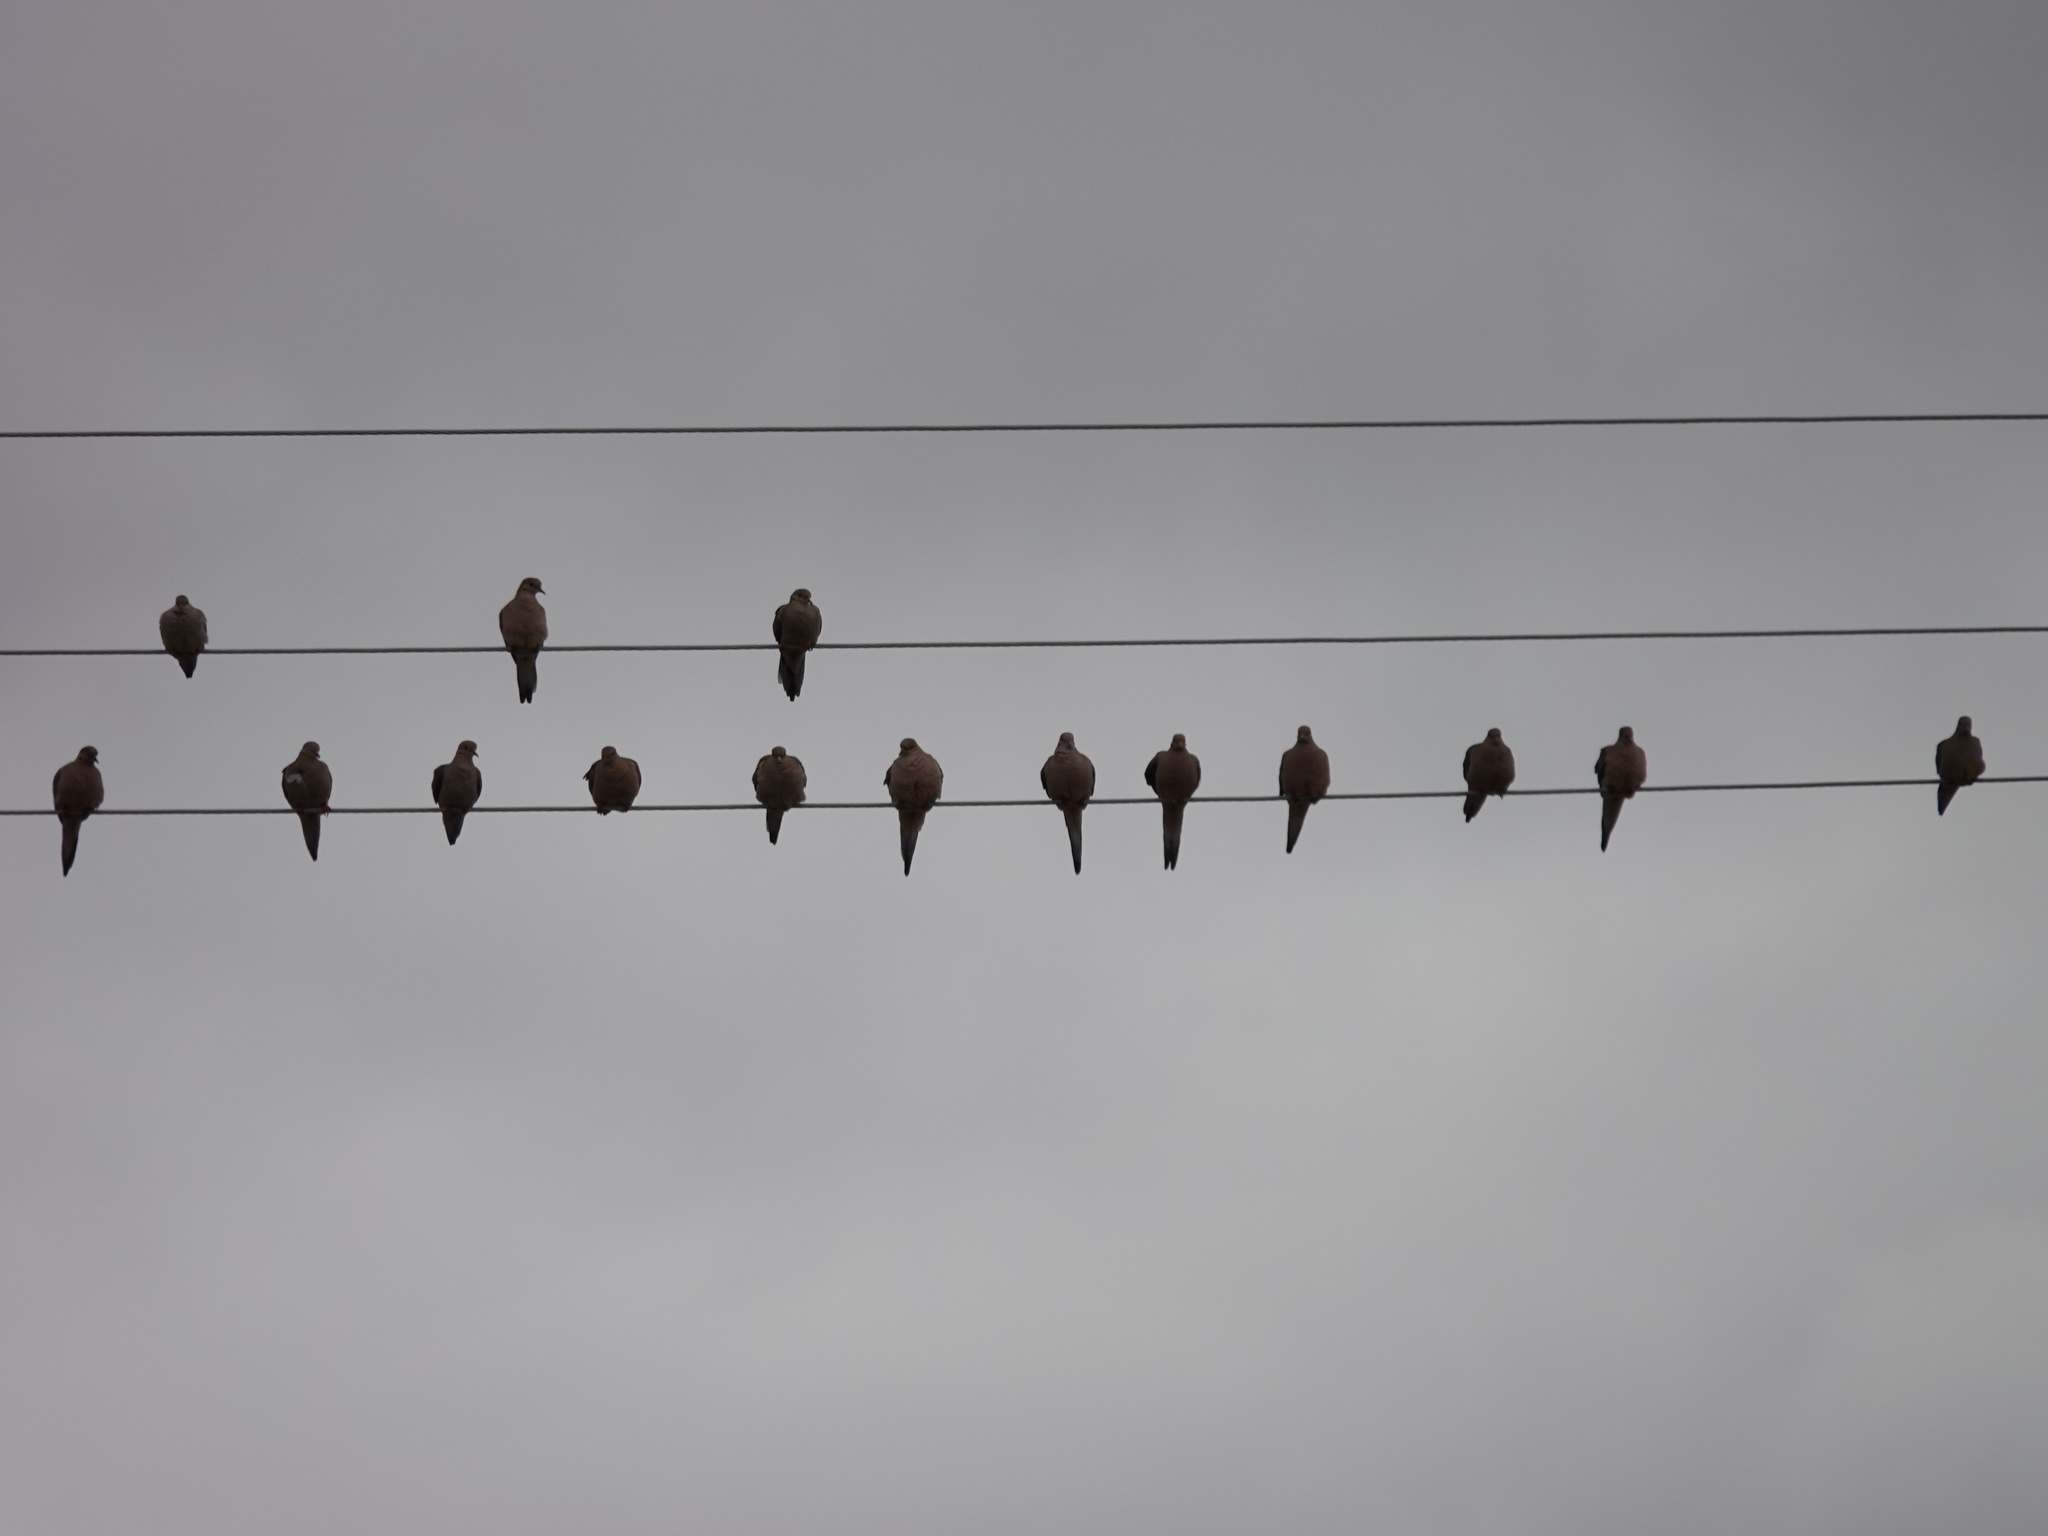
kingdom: Animalia
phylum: Chordata
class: Aves
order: Columbiformes
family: Columbidae
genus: Zenaida
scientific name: Zenaida macroura
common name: Mourning dove
